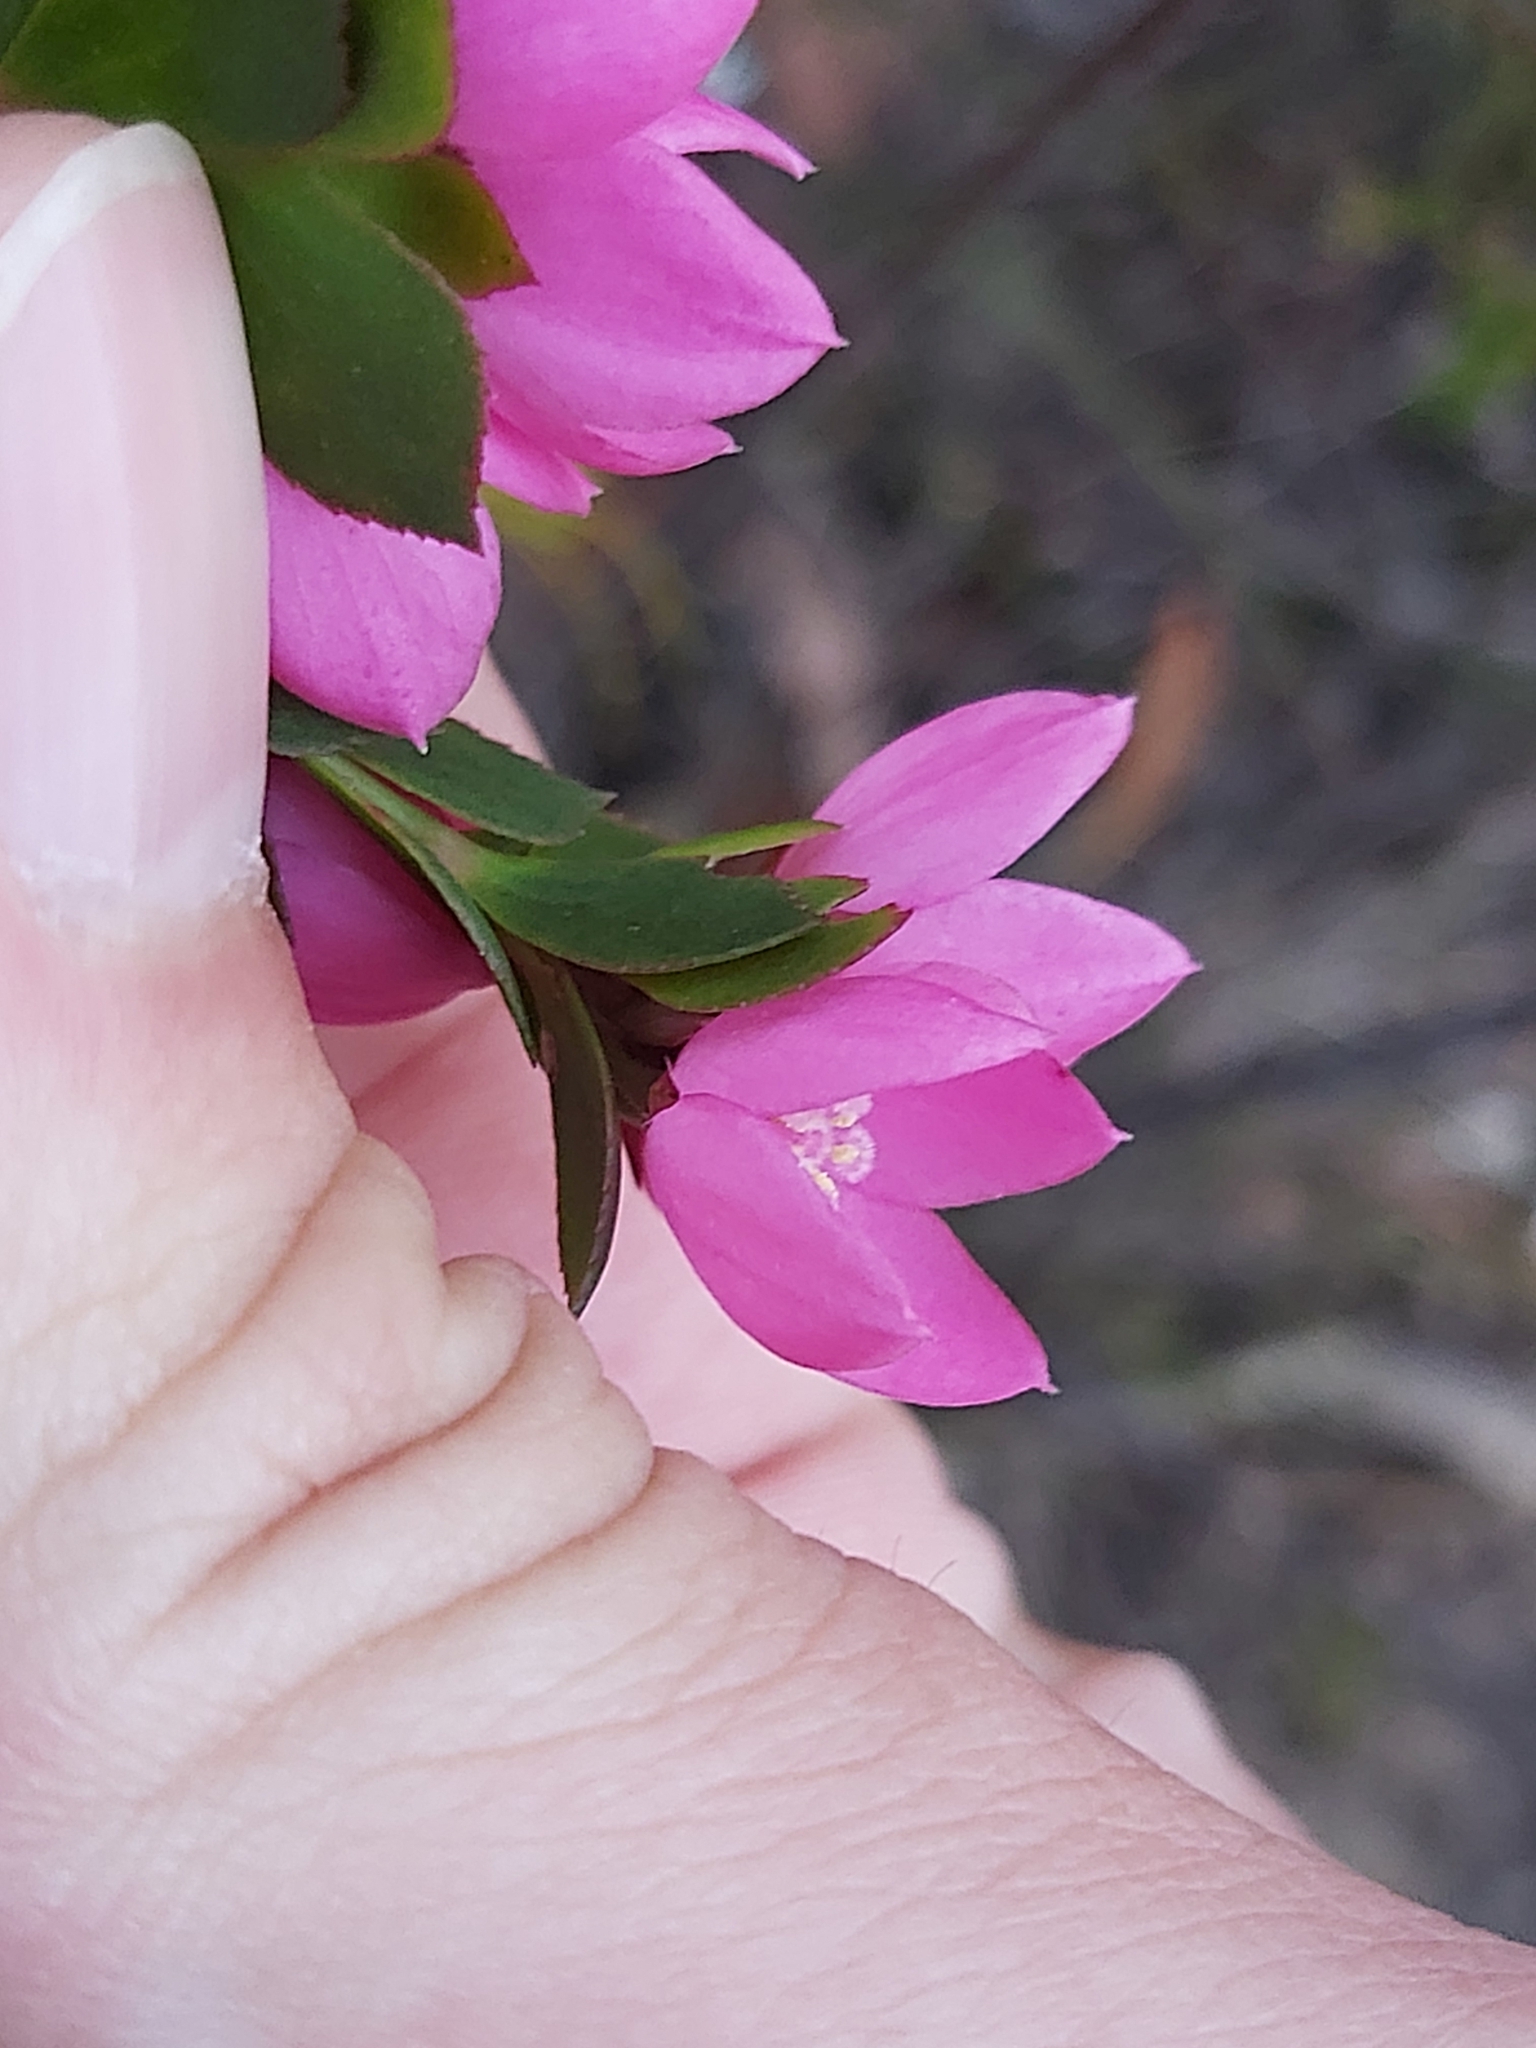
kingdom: Plantae
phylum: Tracheophyta
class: Magnoliopsida
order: Sapindales
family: Rutaceae
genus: Boronia
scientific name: Boronia serrulata
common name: Rose boronia
